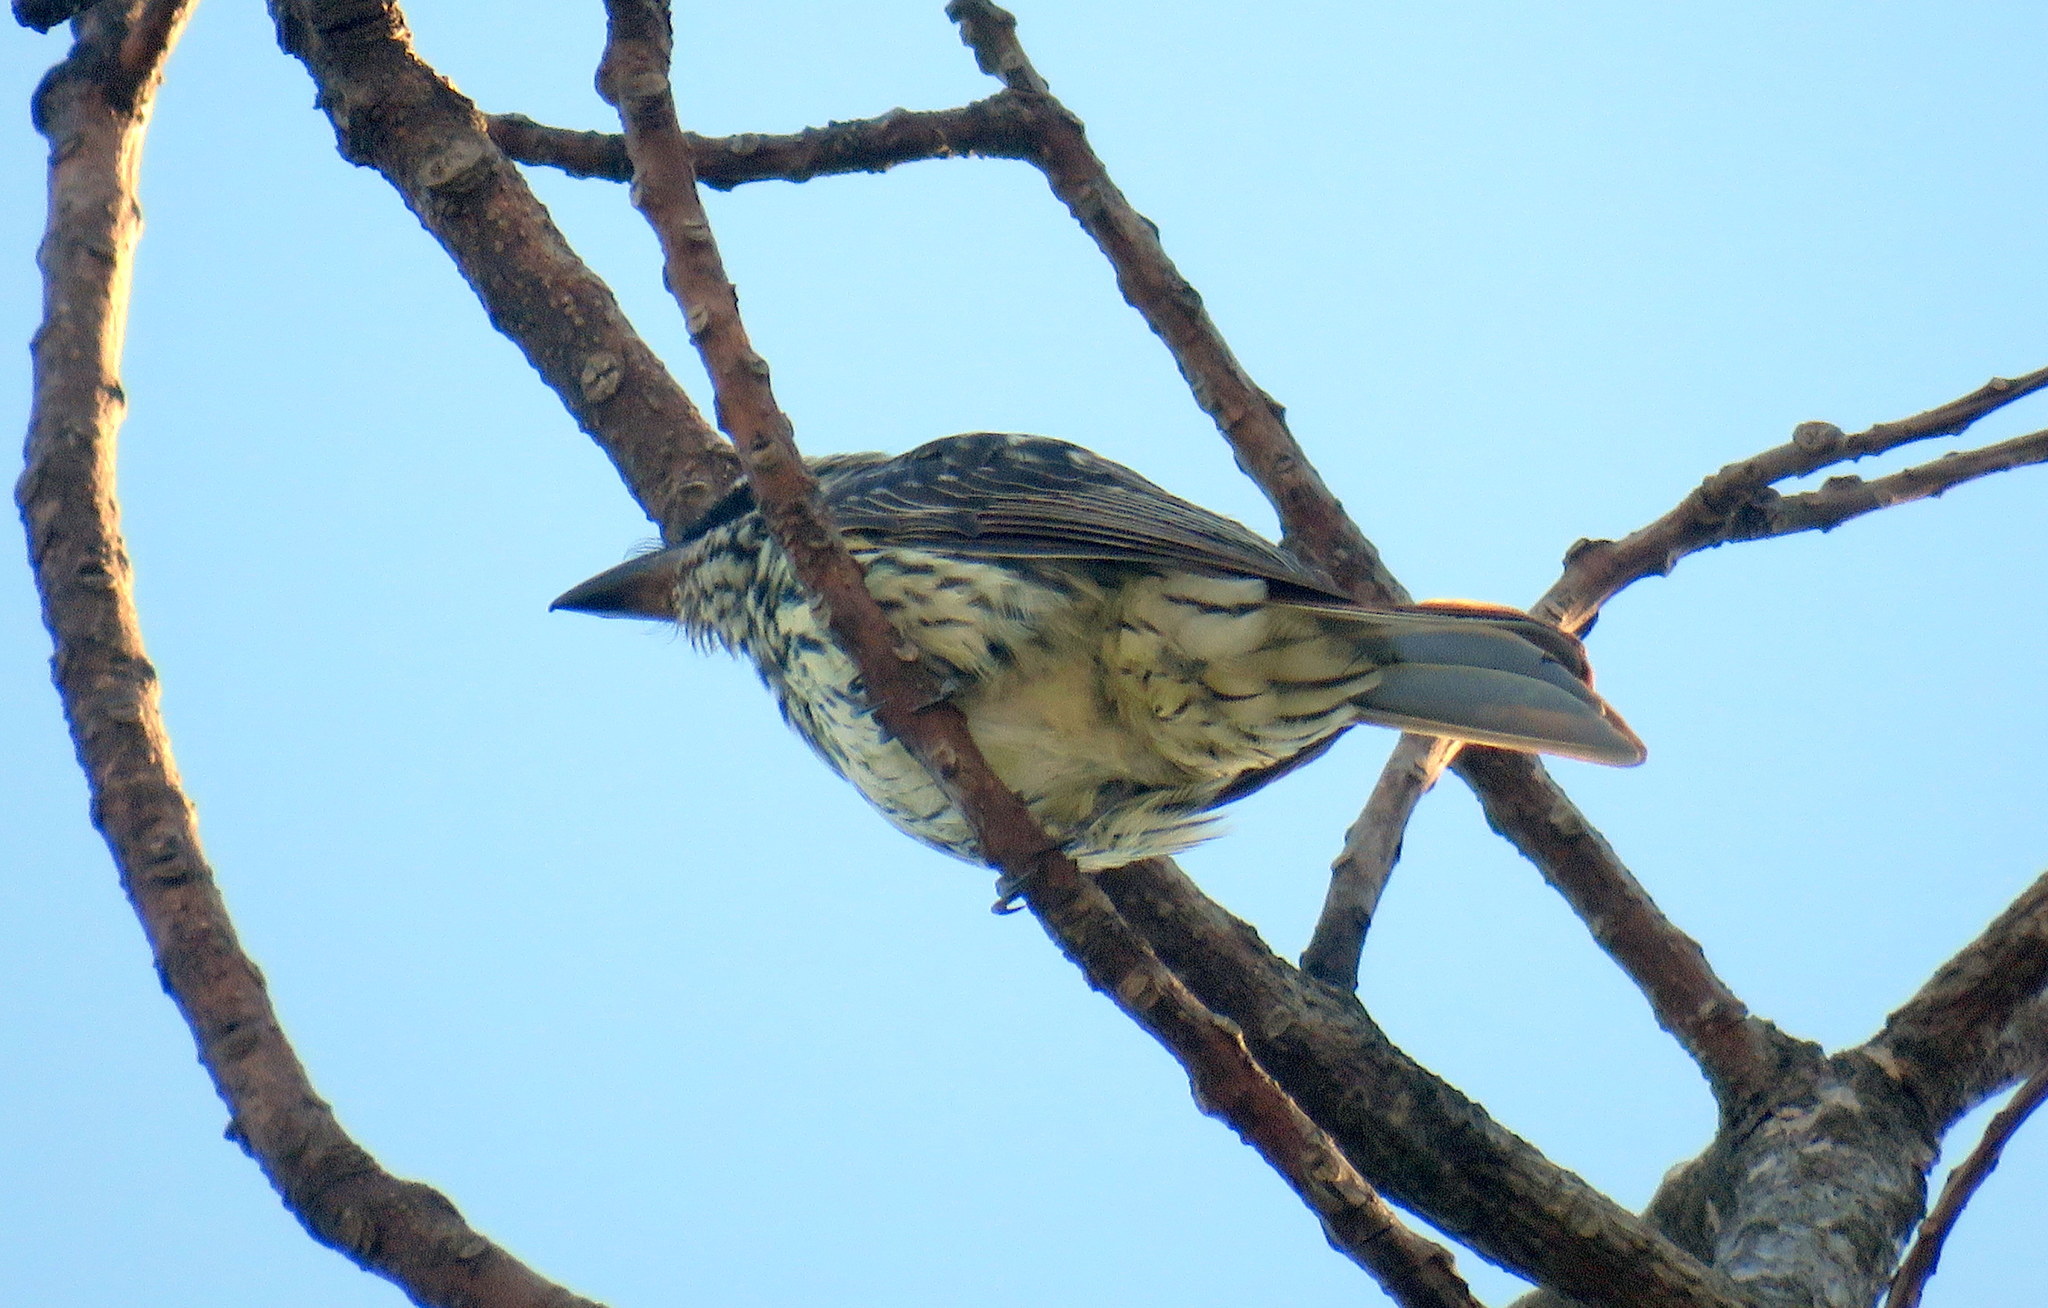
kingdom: Animalia
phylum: Chordata
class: Aves
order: Passeriformes
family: Tyrannidae
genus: Myiodynastes
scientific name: Myiodynastes maculatus
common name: Streaked flycatcher
